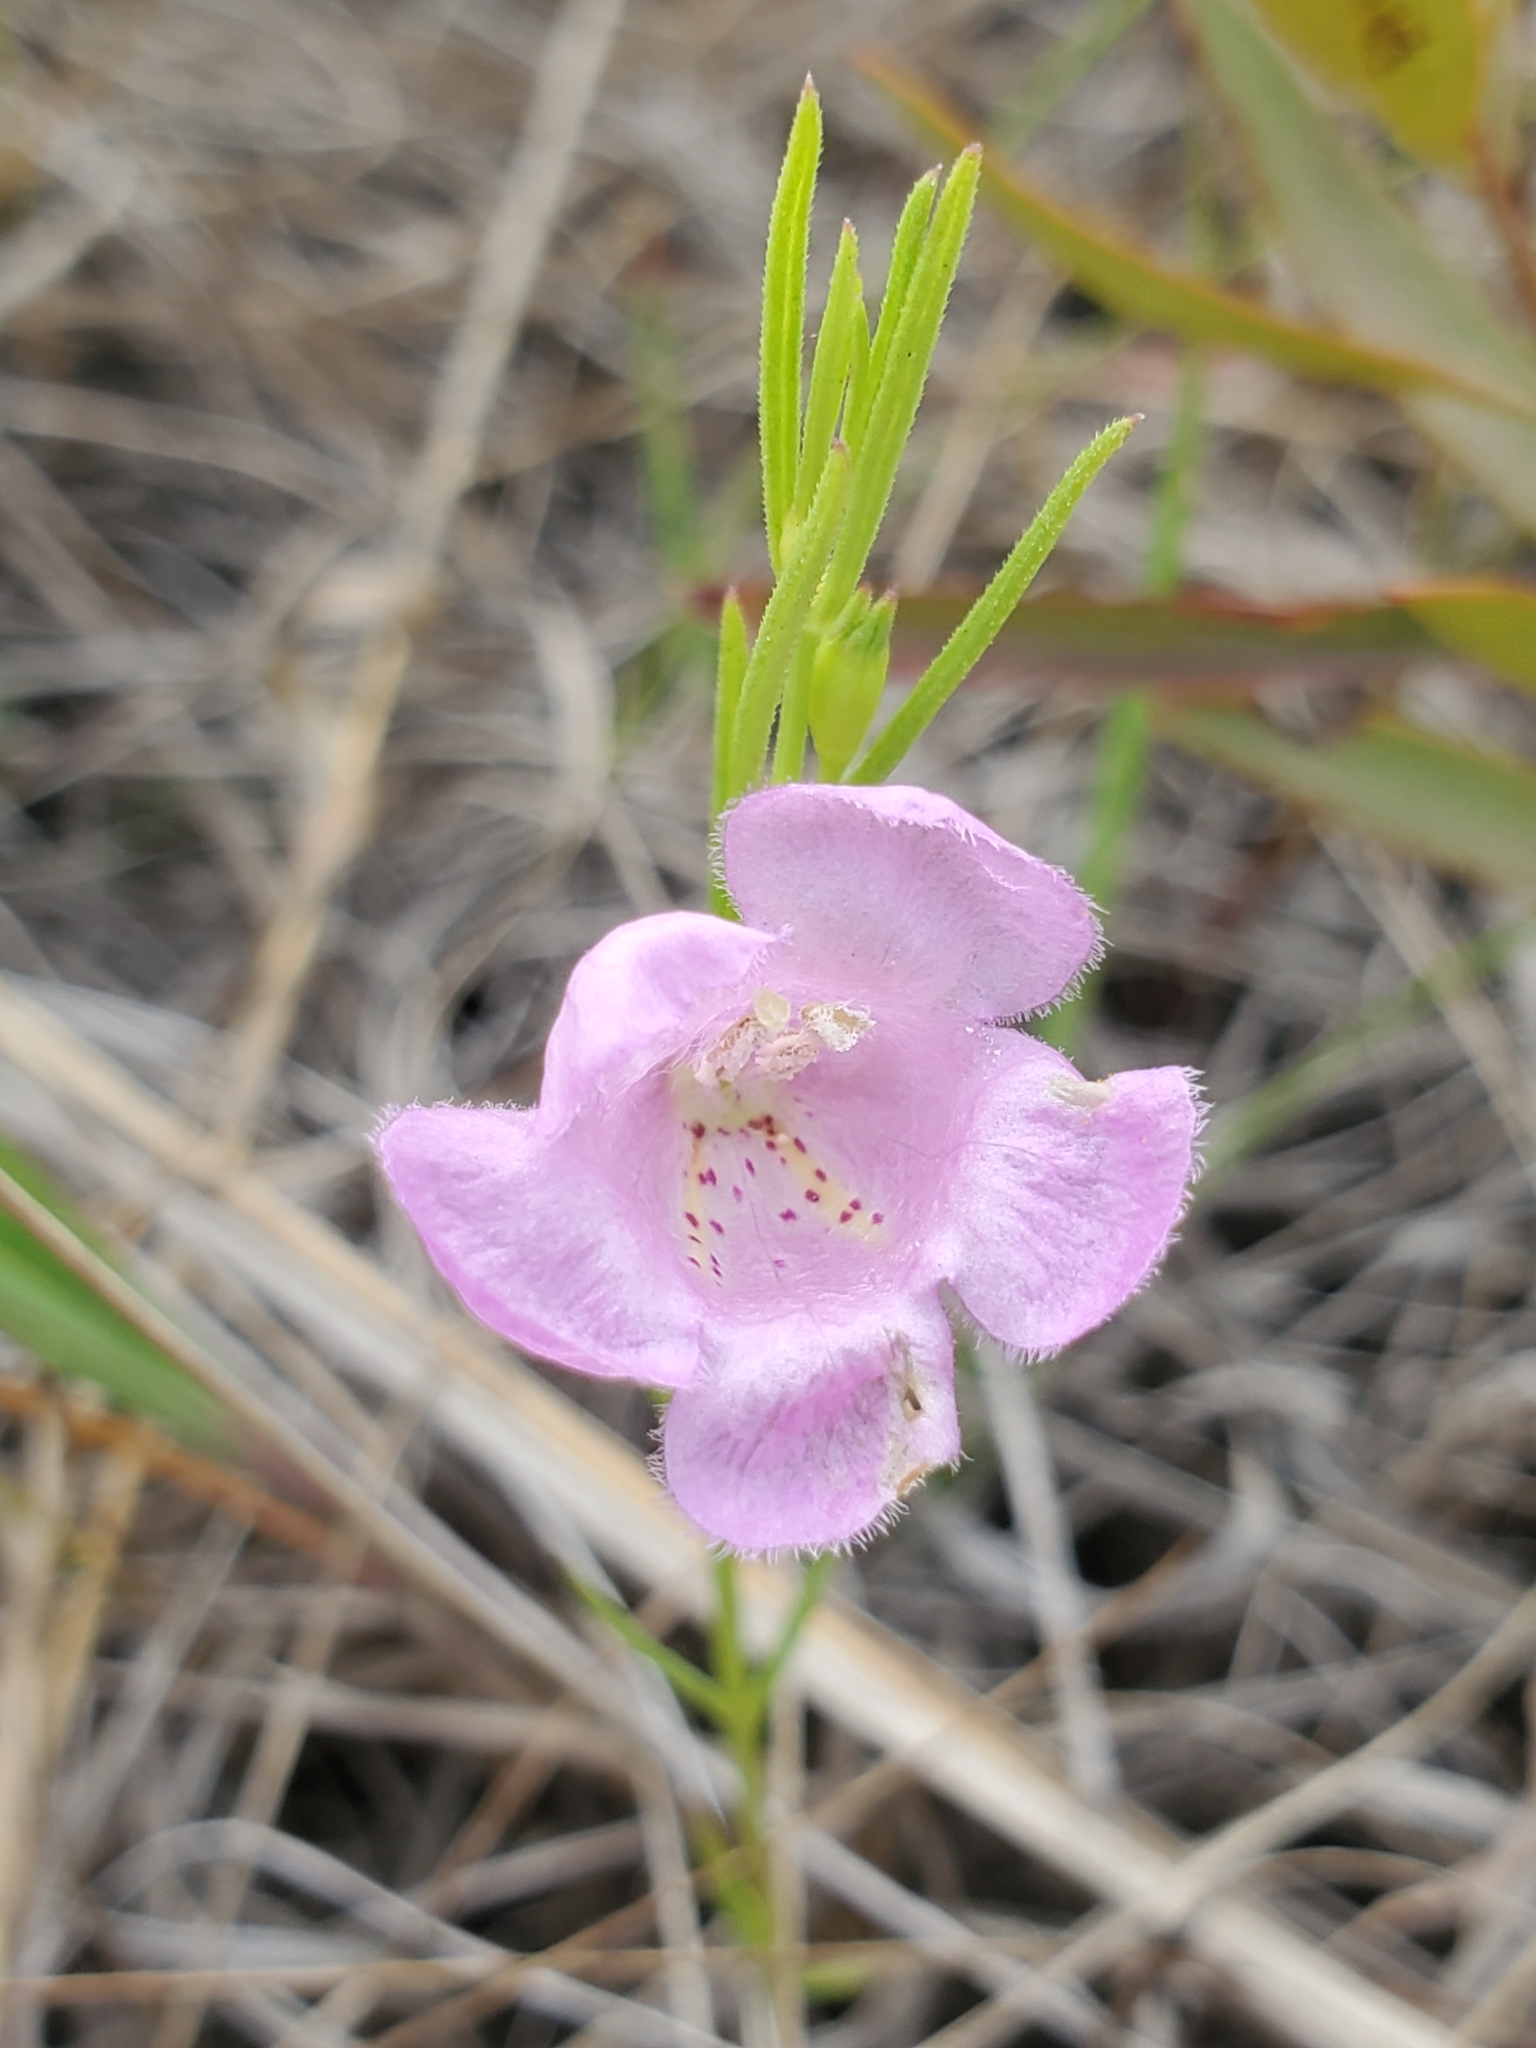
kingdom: Plantae
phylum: Tracheophyta
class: Magnoliopsida
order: Lamiales
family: Orobanchaceae
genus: Agalinis
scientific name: Agalinis aspera
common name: Rough agalinis
